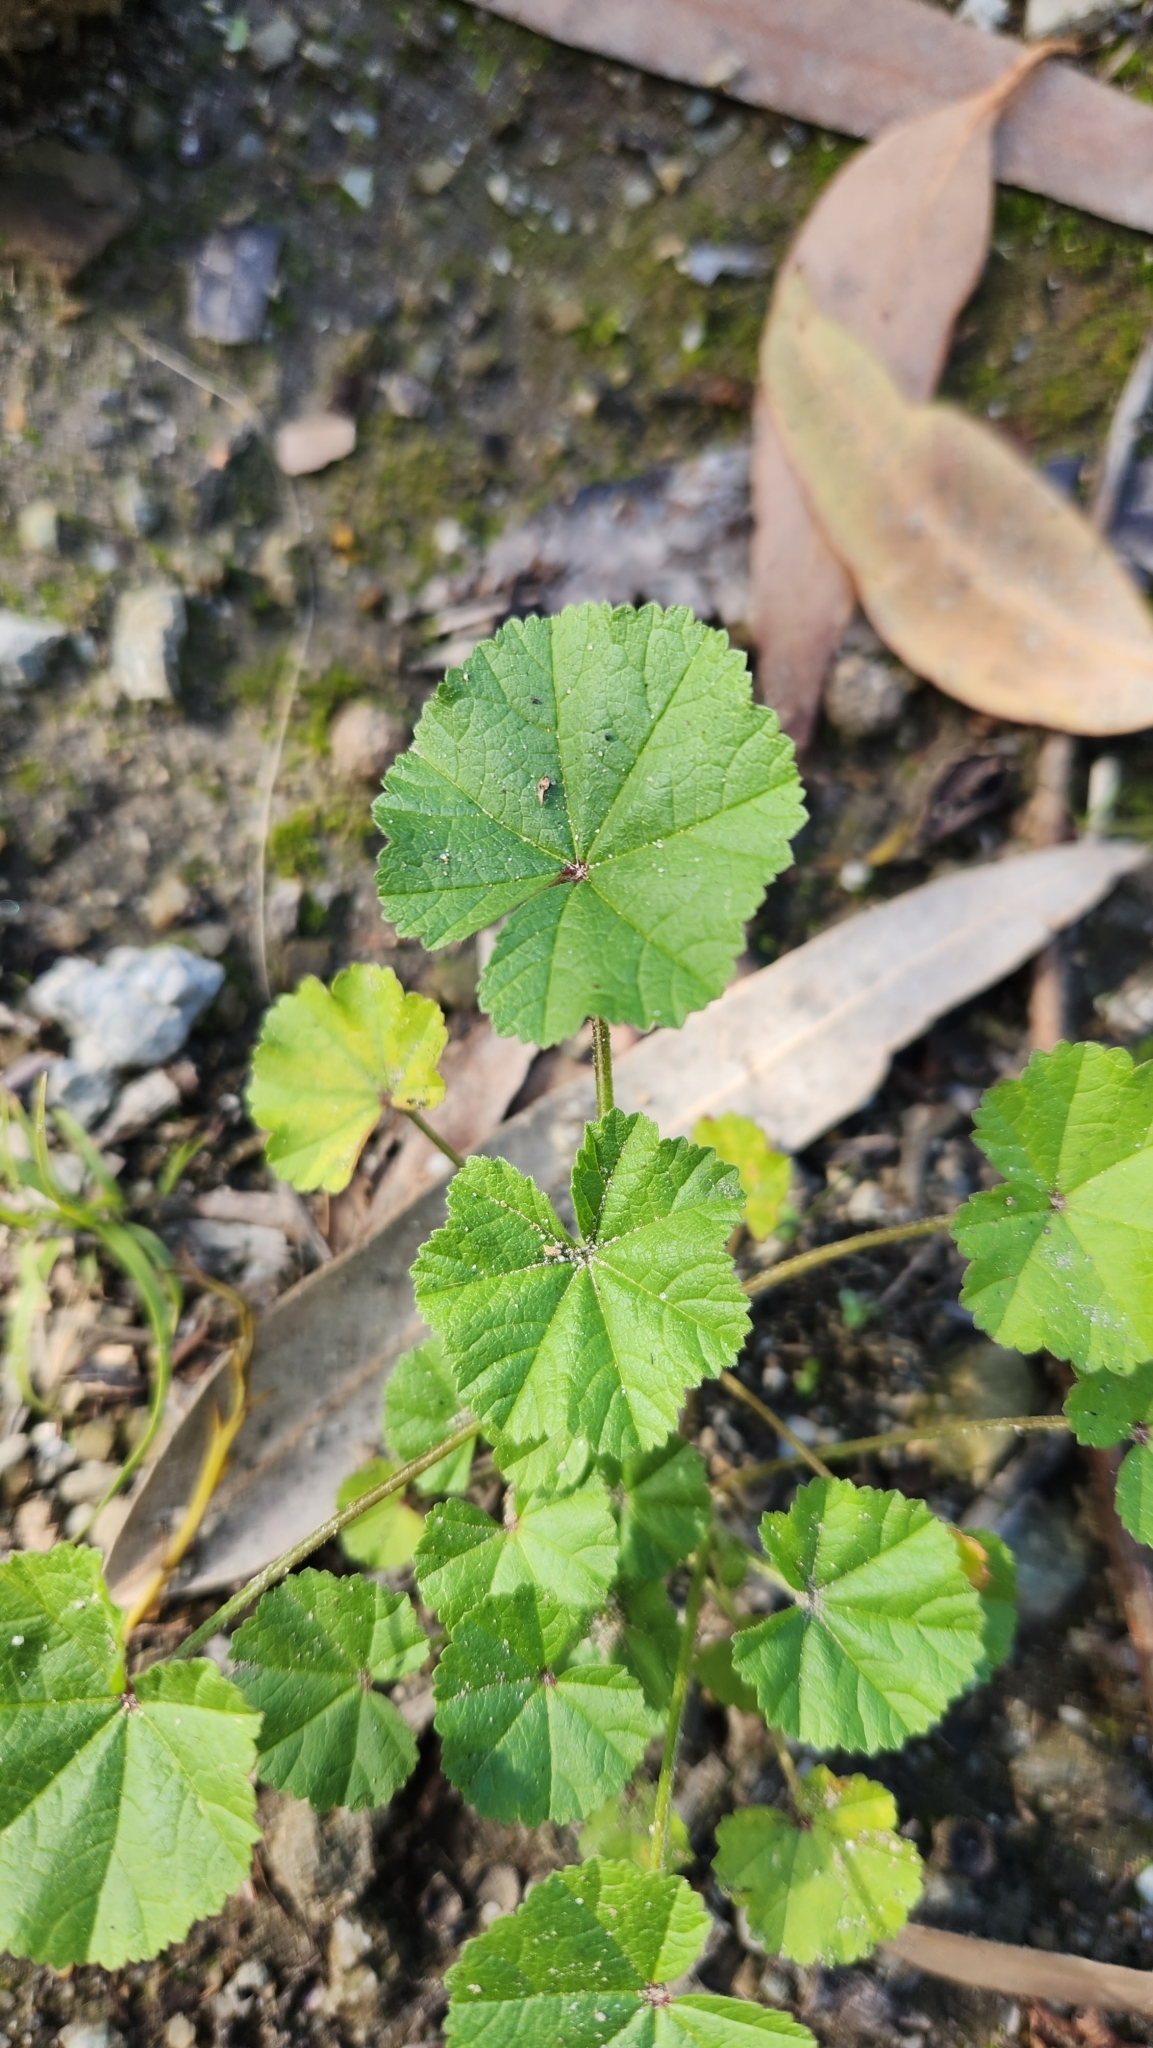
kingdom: Plantae
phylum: Tracheophyta
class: Magnoliopsida
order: Malvales
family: Malvaceae
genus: Malva
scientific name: Malva
